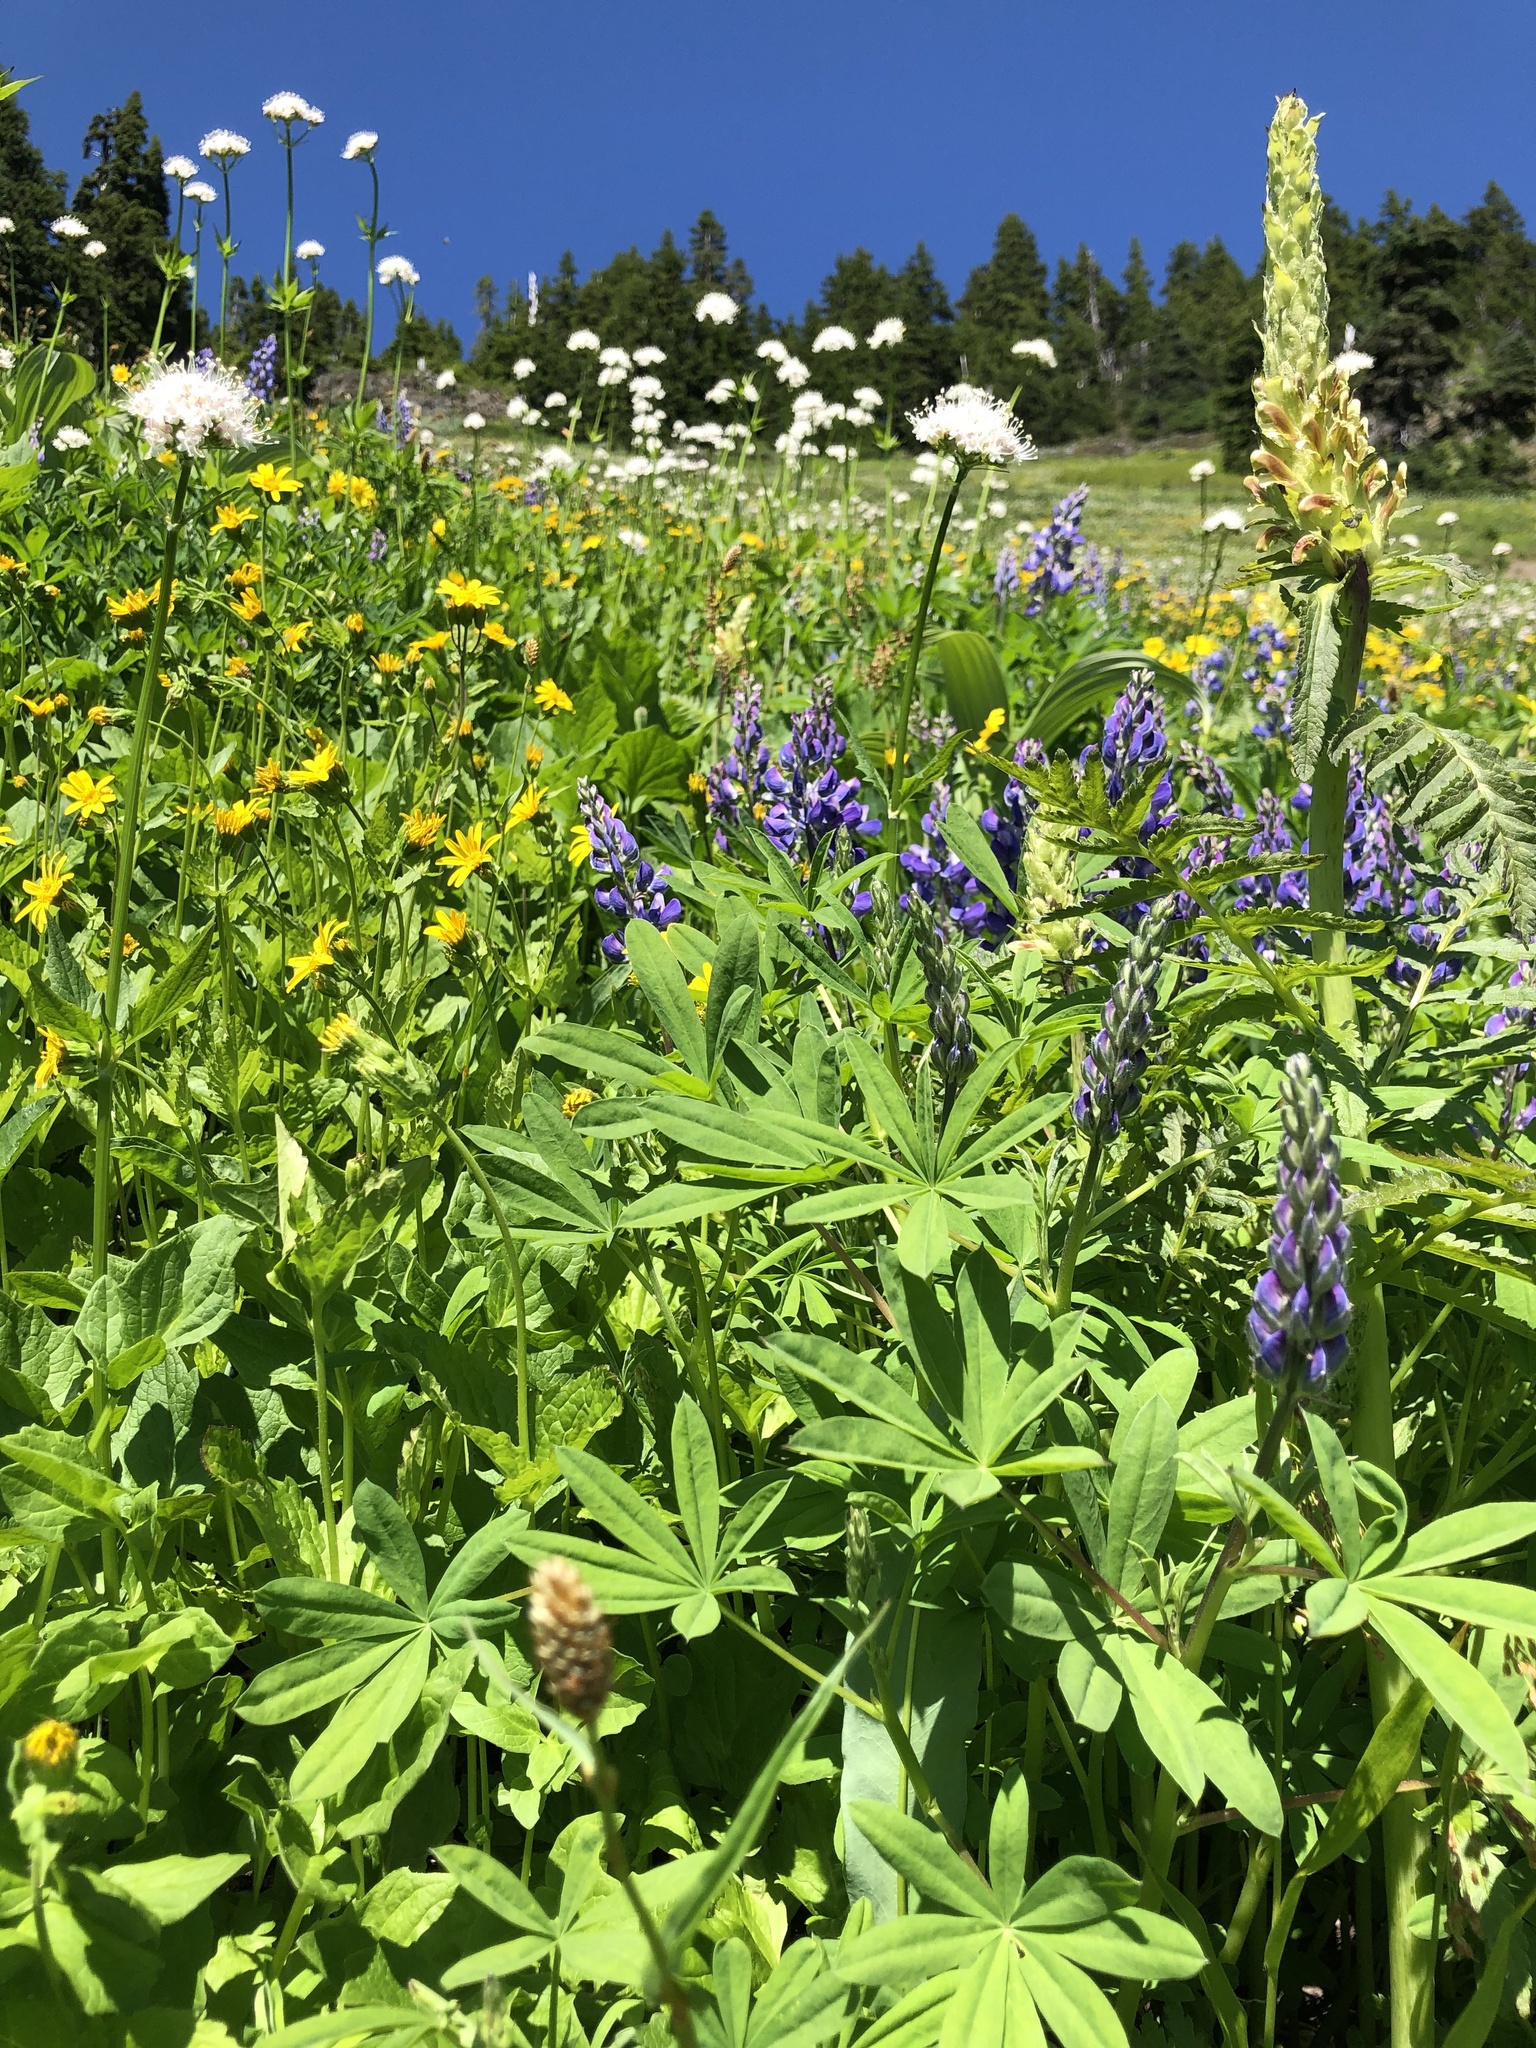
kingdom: Plantae
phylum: Tracheophyta
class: Magnoliopsida
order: Dipsacales
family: Caprifoliaceae
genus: Valeriana
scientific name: Valeriana sitchensis
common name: Pacific valerian
